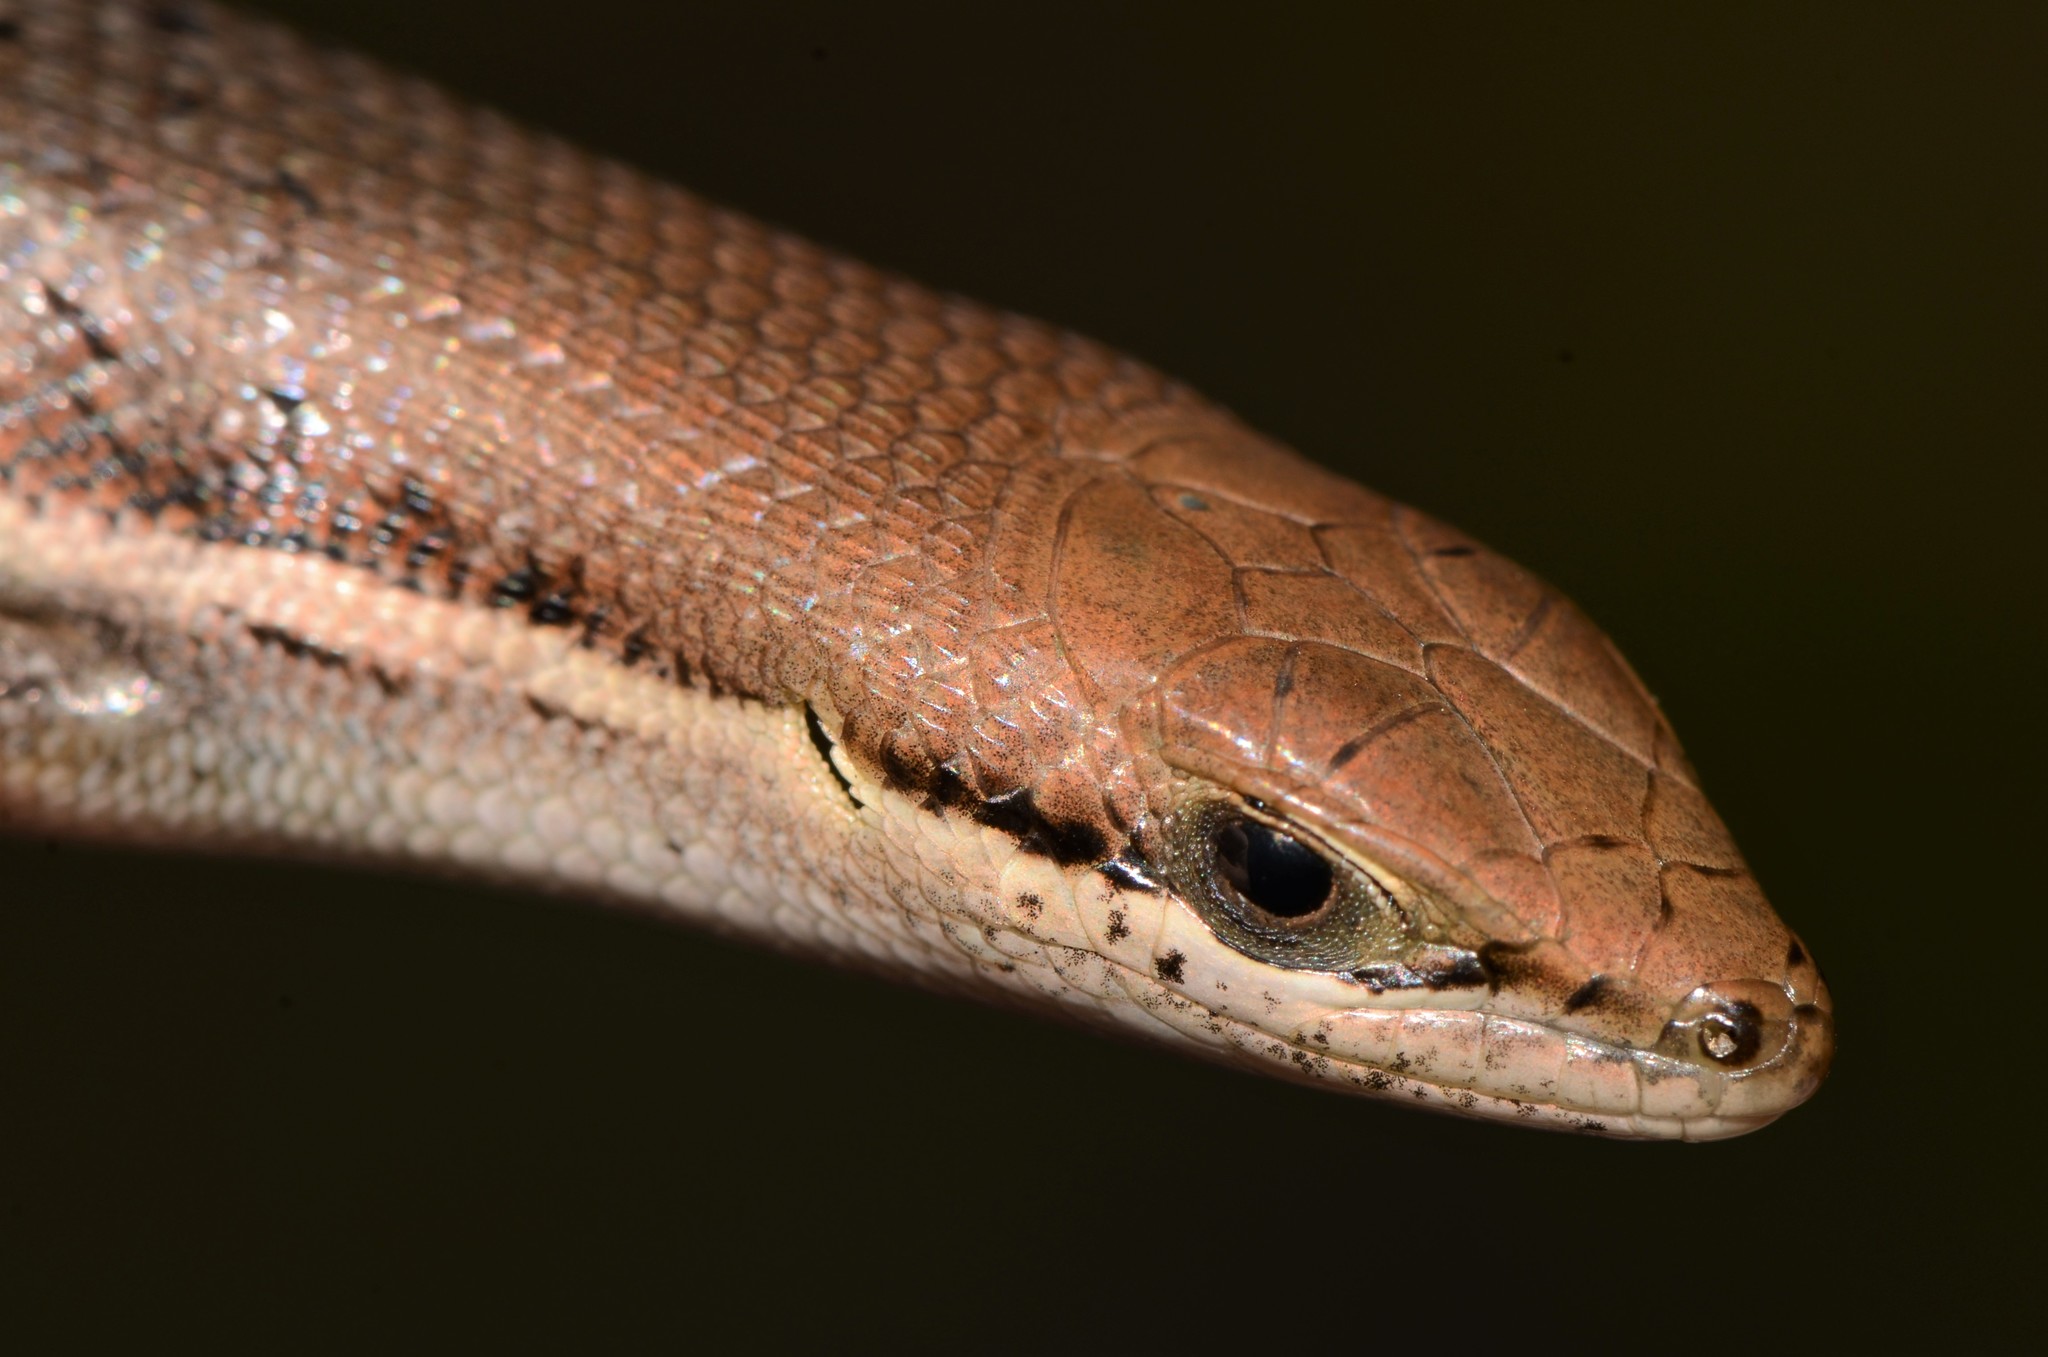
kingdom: Animalia
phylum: Chordata
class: Squamata
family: Scincidae
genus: Trachylepis
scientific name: Trachylepis varia
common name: Eastern variable skink
